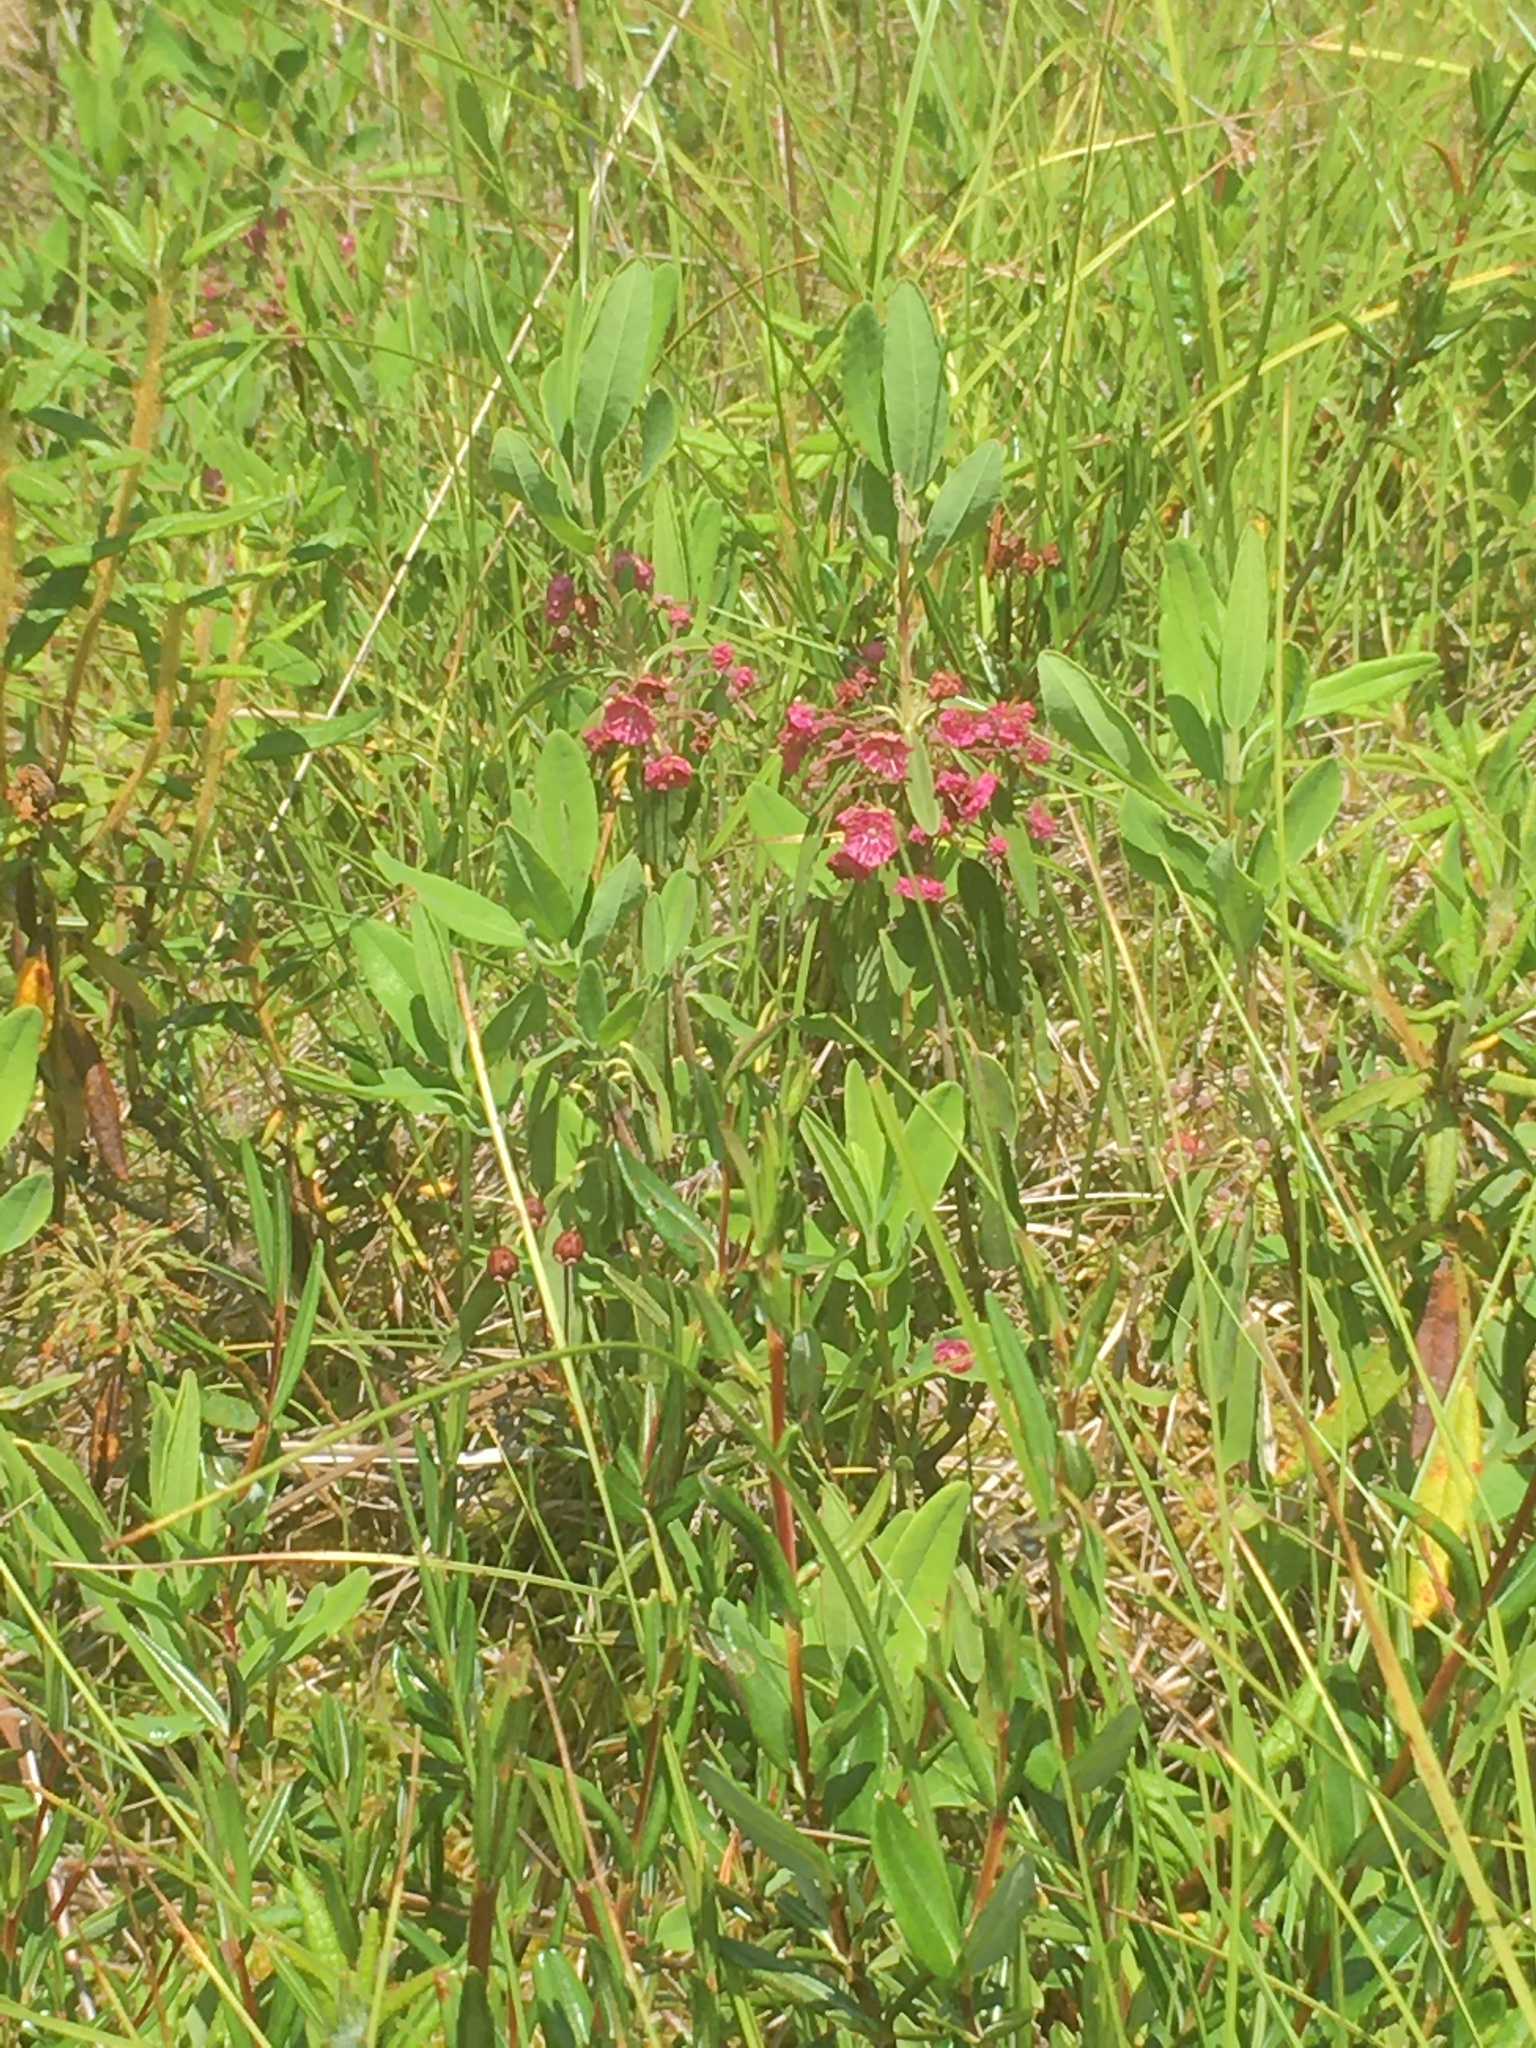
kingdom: Plantae
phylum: Tracheophyta
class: Magnoliopsida
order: Ericales
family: Ericaceae
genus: Kalmia
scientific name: Kalmia angustifolia
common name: Sheep-laurel
